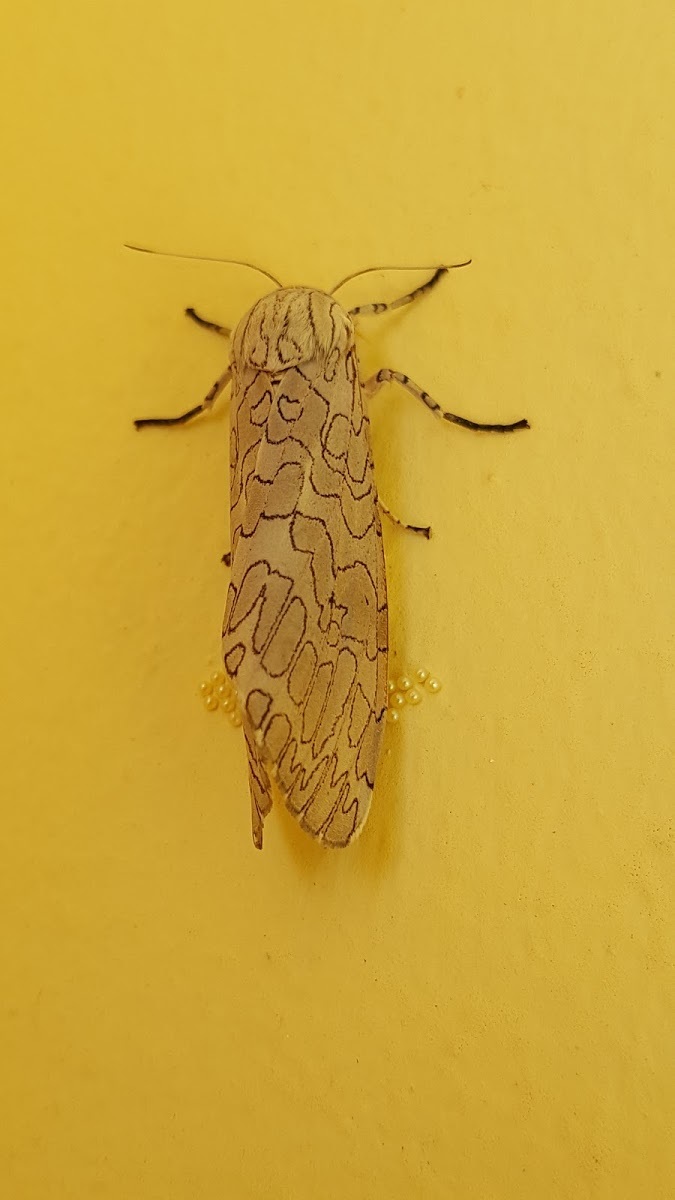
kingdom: Animalia
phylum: Arthropoda
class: Insecta
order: Lepidoptera
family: Erebidae
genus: Hypercompe
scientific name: Hypercompe albescens
